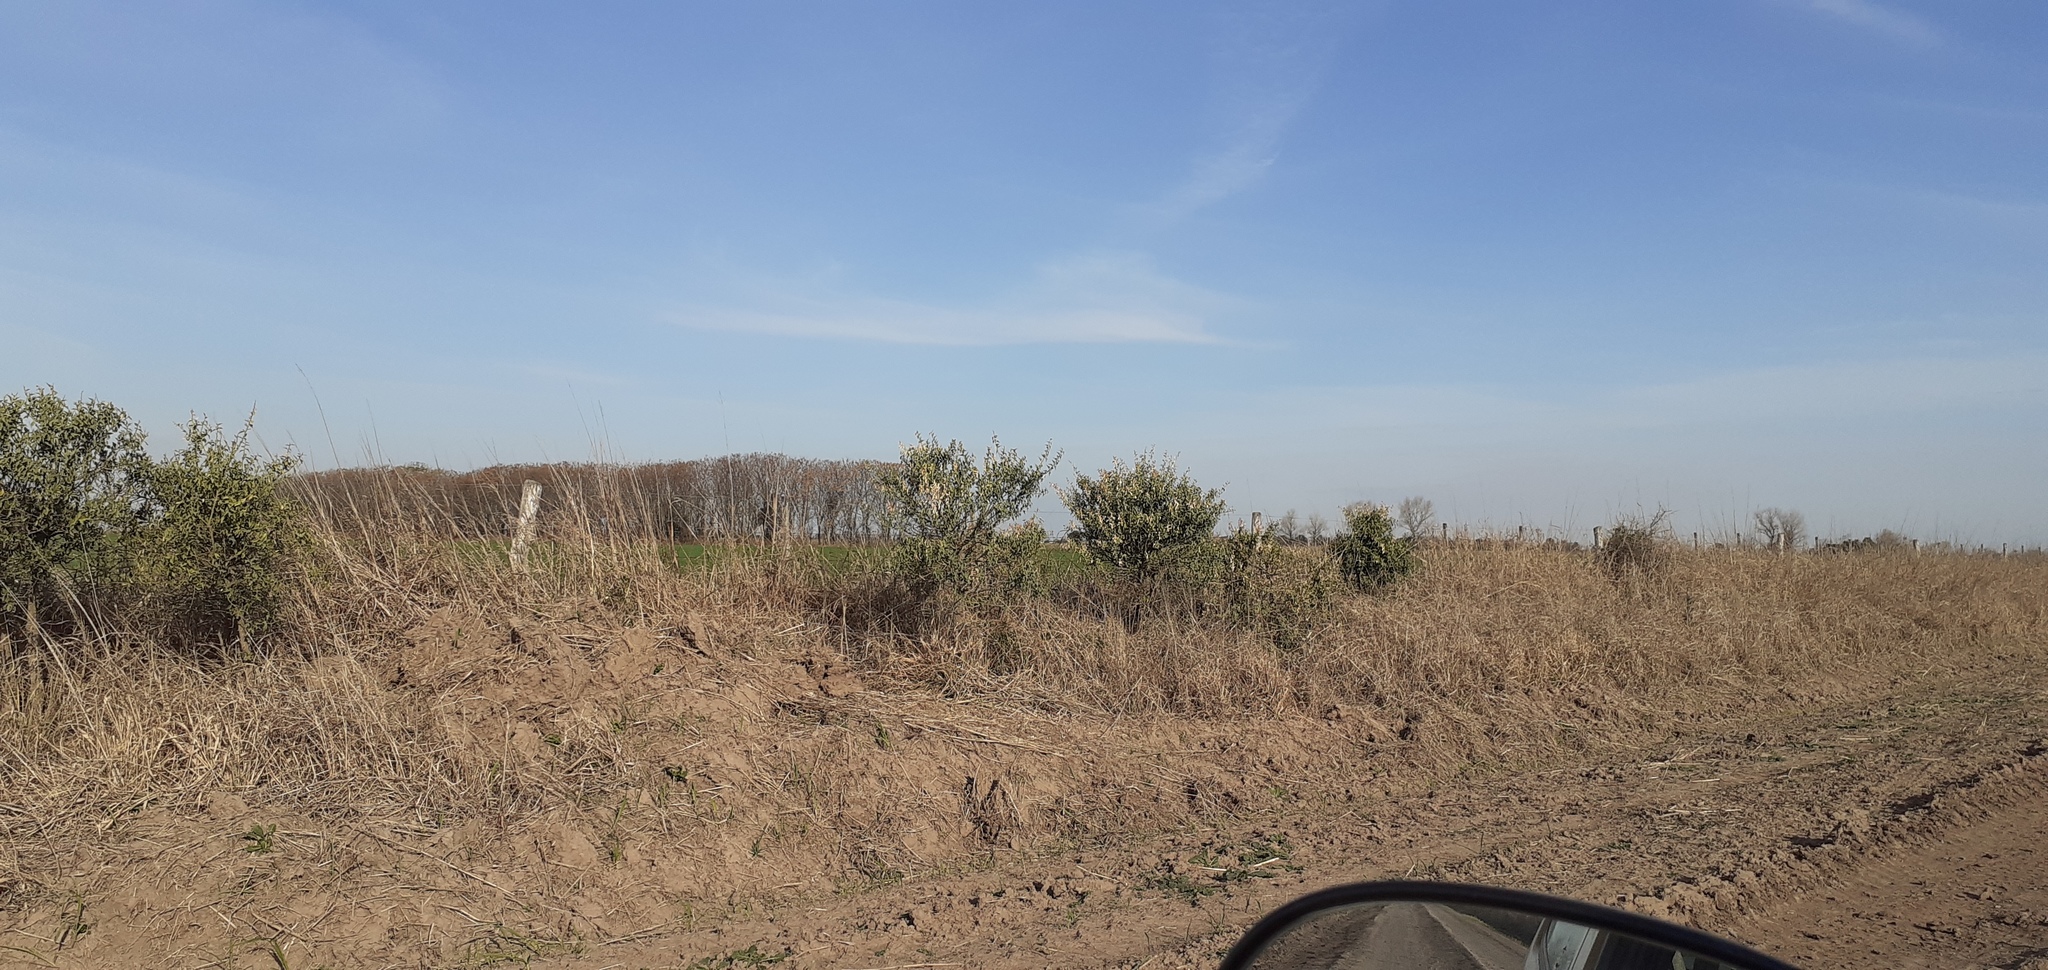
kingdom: Plantae
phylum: Tracheophyta
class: Magnoliopsida
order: Santalales
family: Cervantesiaceae
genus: Jodina
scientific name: Jodina rhombifolia
